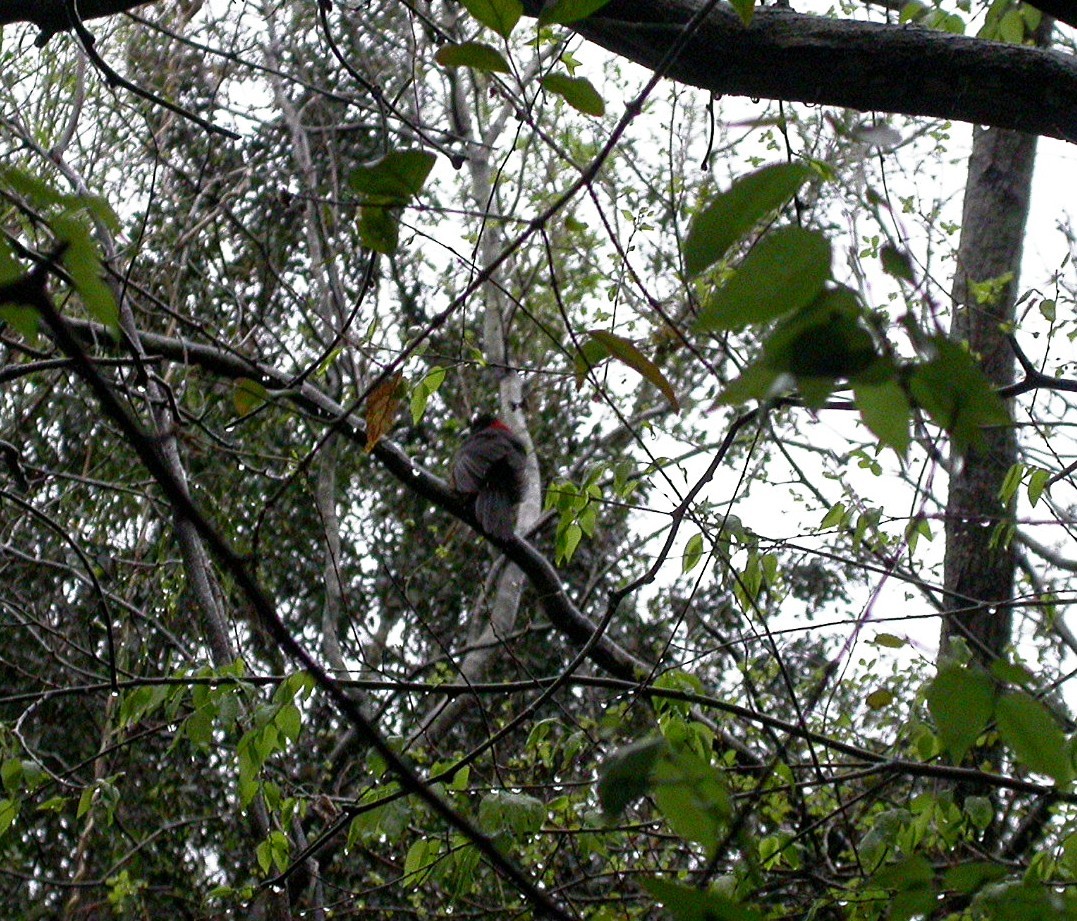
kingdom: Animalia
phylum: Chordata
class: Aves
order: Passeriformes
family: Cardinalidae
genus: Rhodothraupis
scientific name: Rhodothraupis celaeno
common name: Crimson-collared grosbeak
